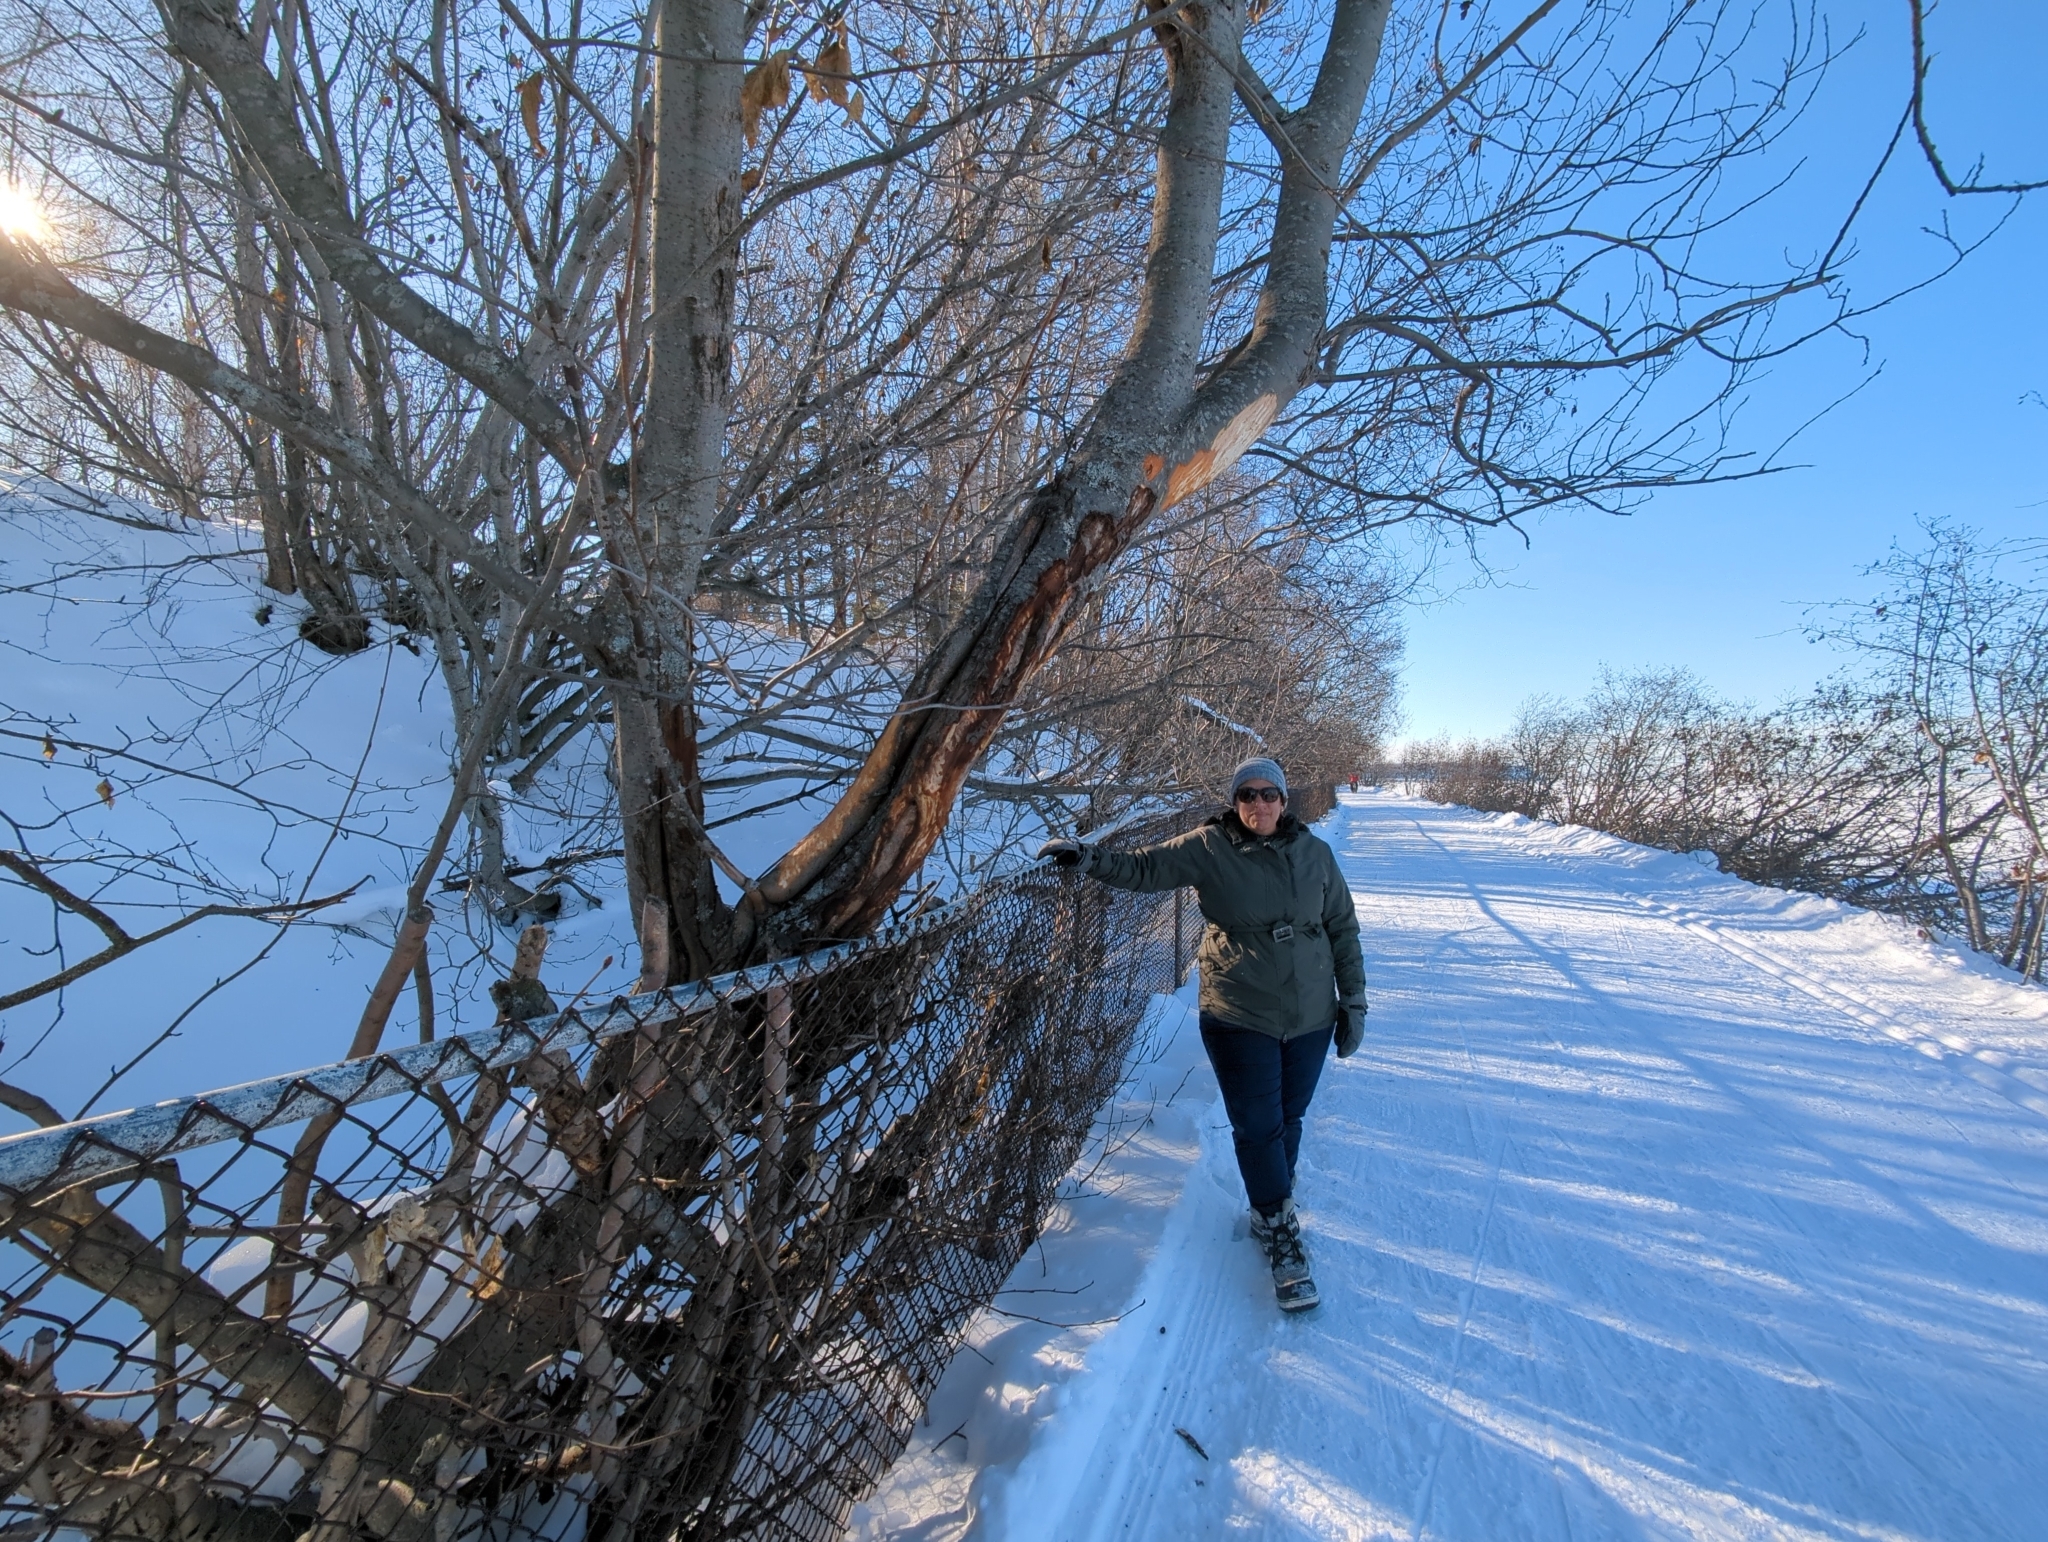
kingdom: Animalia
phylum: Chordata
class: Mammalia
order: Artiodactyla
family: Cervidae
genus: Alces
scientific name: Alces alces
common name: Moose
